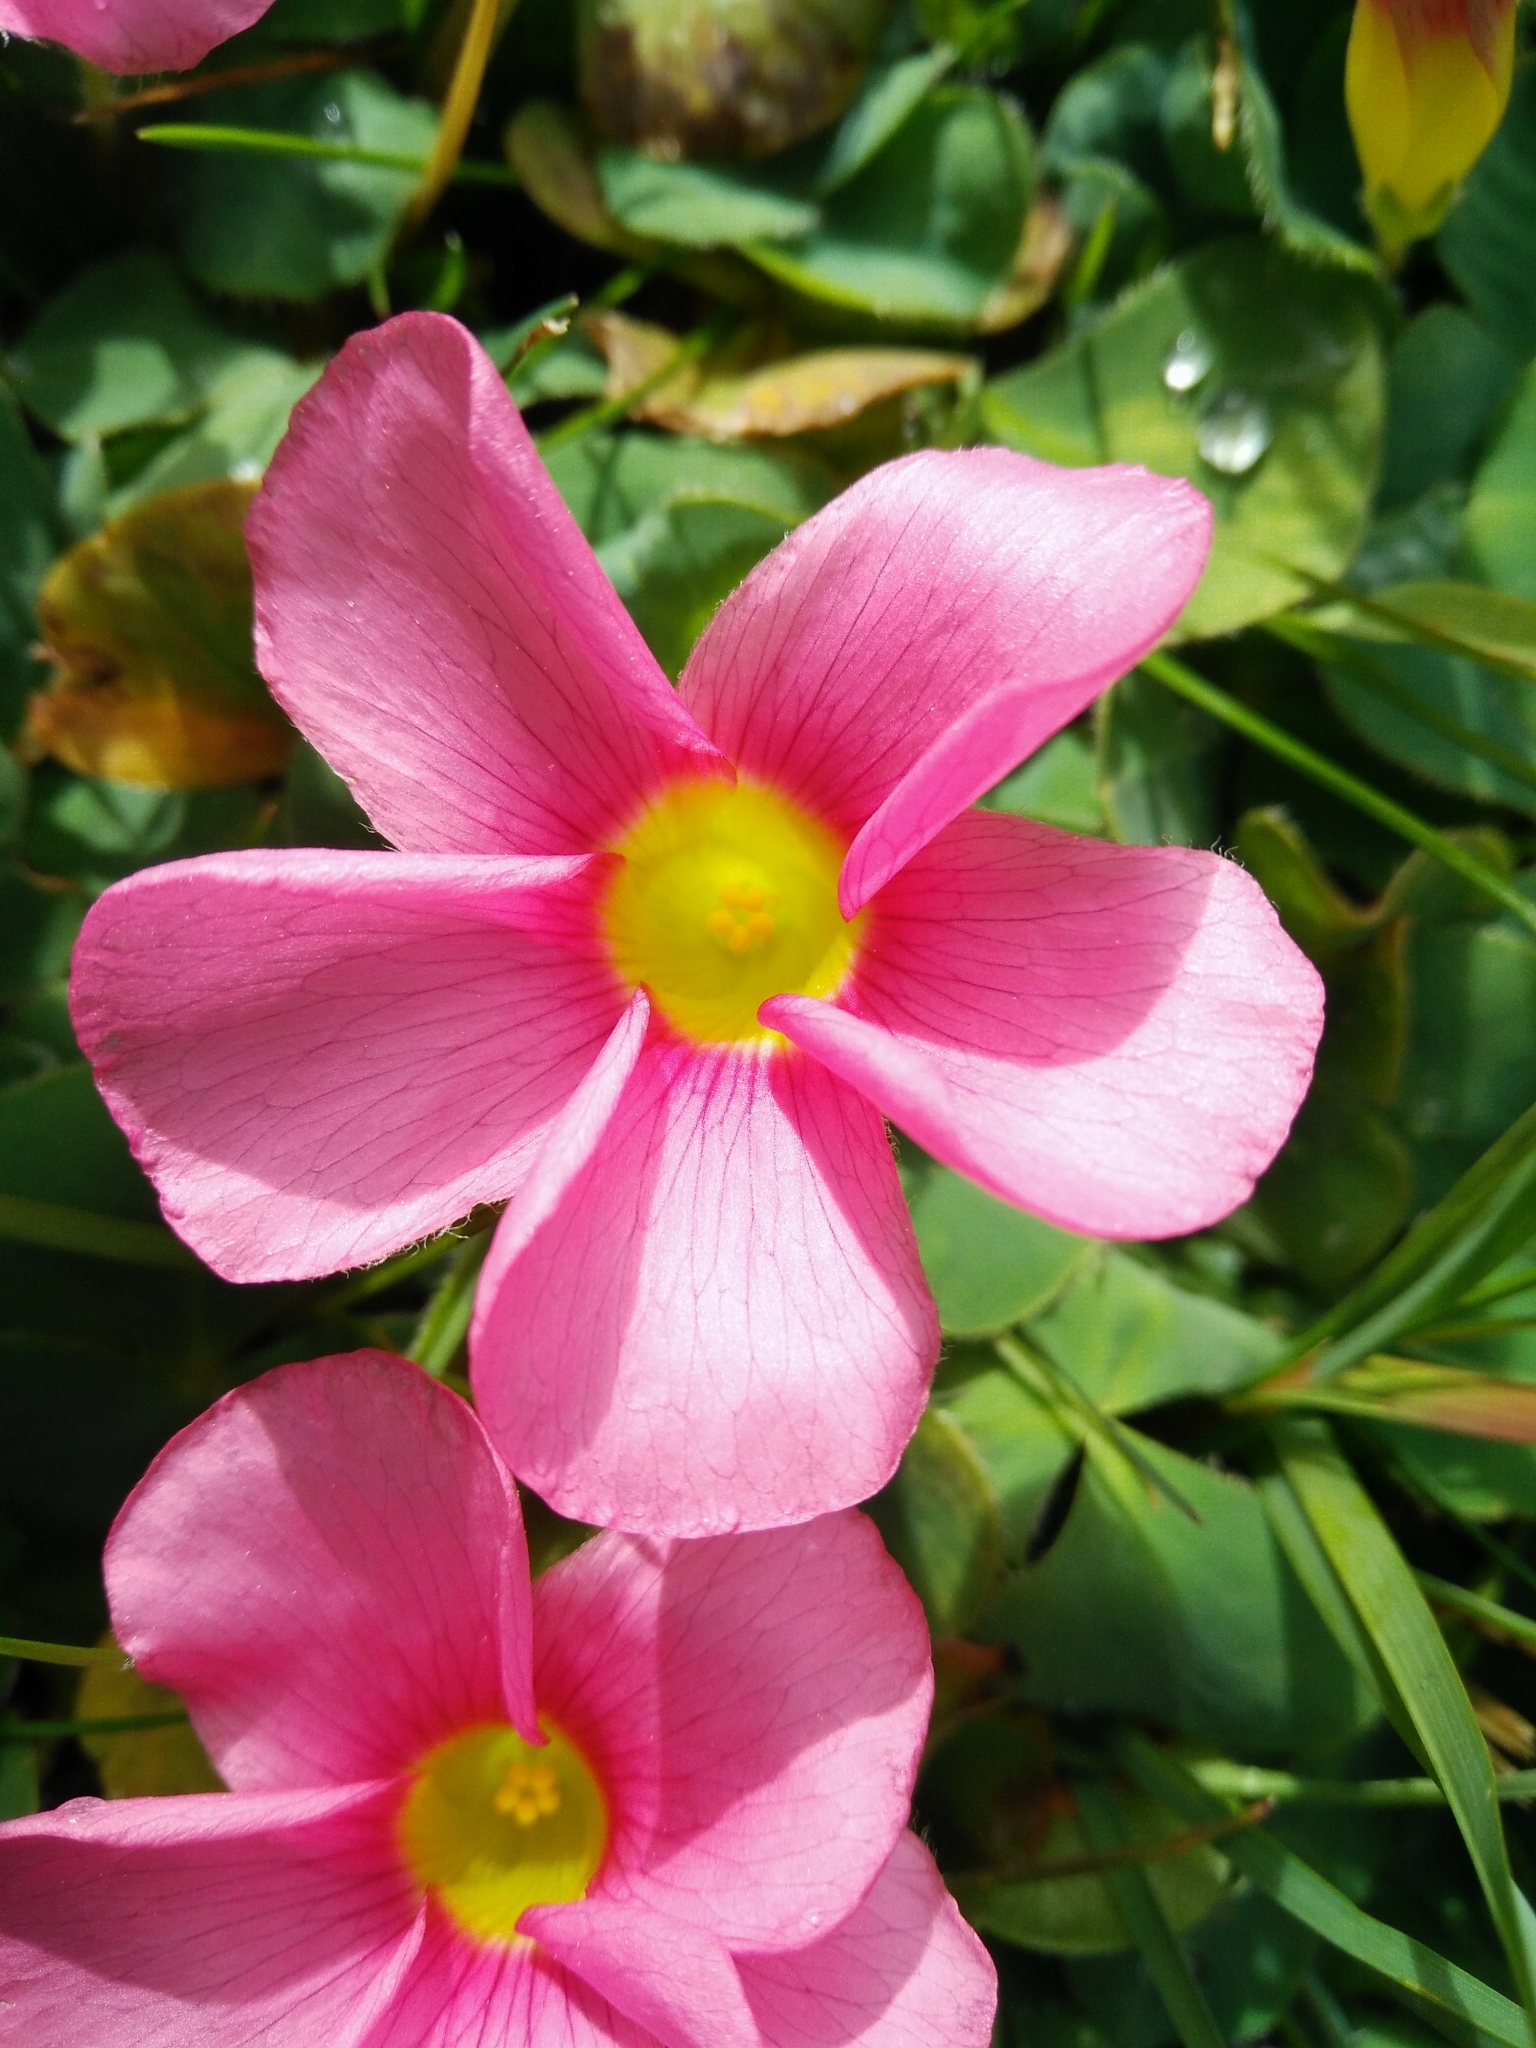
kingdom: Plantae
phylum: Tracheophyta
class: Magnoliopsida
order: Oxalidales
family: Oxalidaceae
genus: Oxalis
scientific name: Oxalis purpurea
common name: Purple woodsorrel
